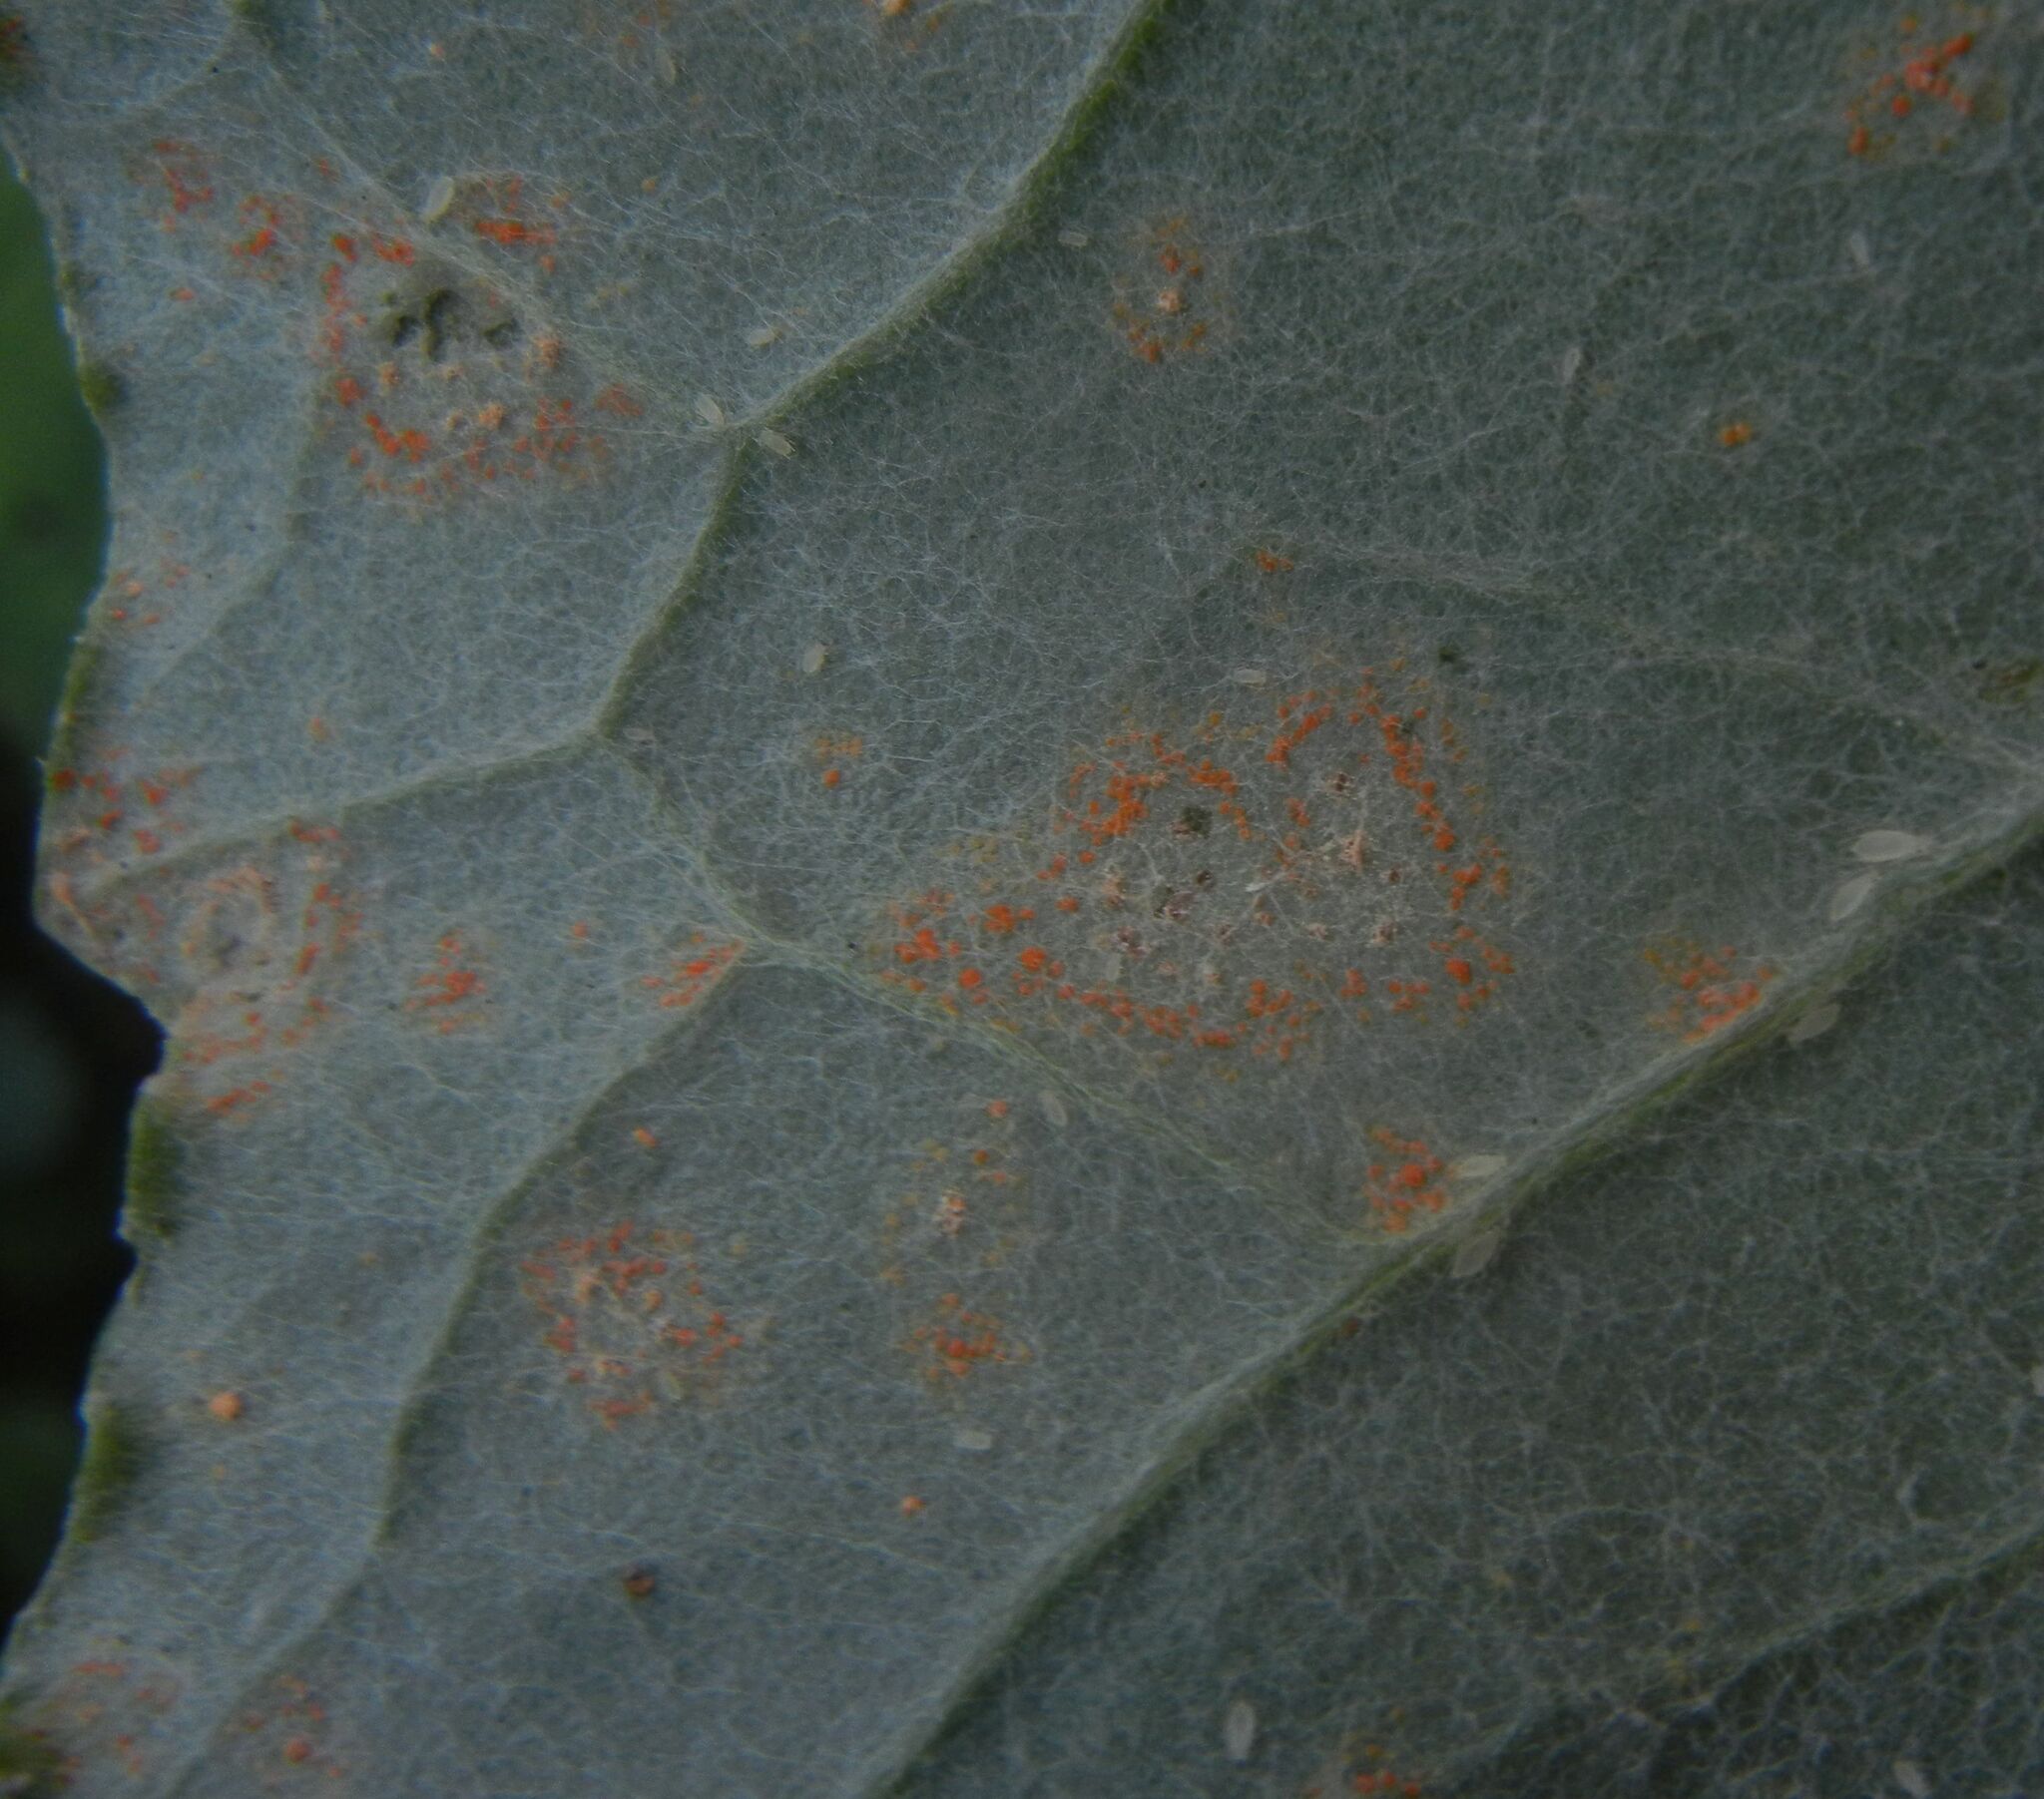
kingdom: Fungi
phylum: Basidiomycota
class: Pucciniomycetes
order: Pucciniales
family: Coleosporiaceae
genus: Coleosporium
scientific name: Coleosporium tussilaginis
